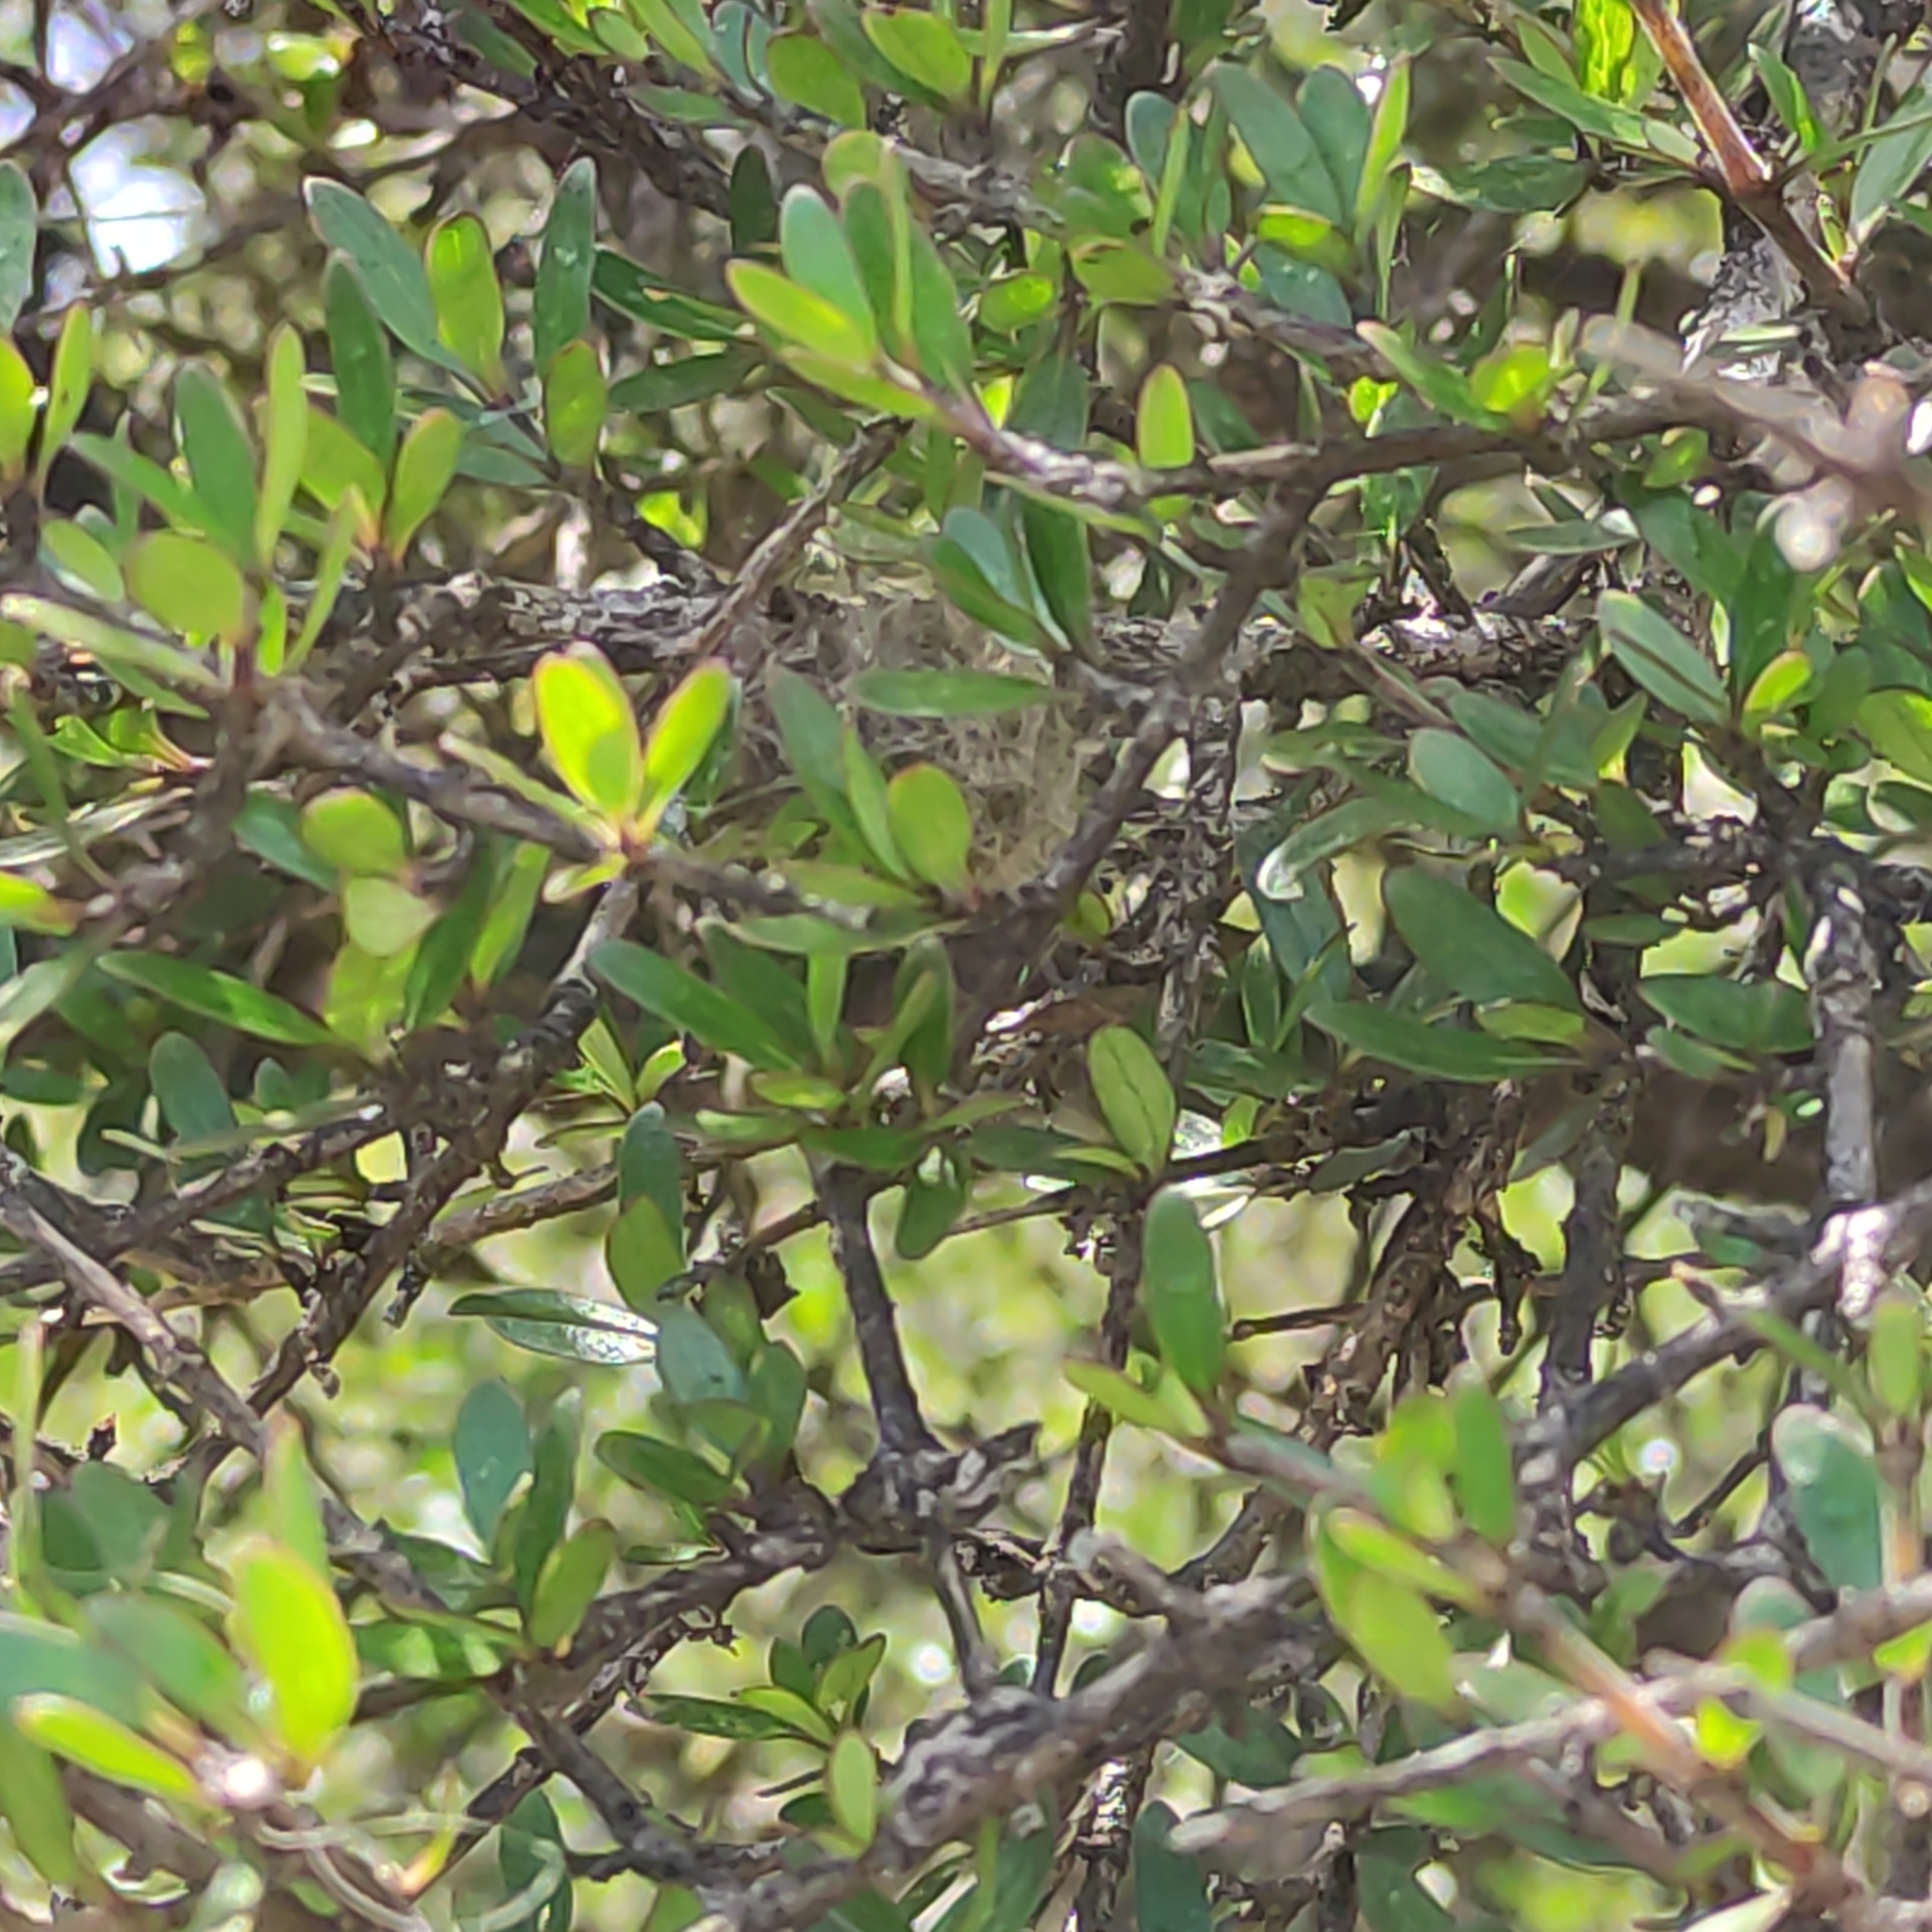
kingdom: Plantae
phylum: Tracheophyta
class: Magnoliopsida
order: Gentianales
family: Rubiaceae
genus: Coprosma
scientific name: Coprosma propinqua
